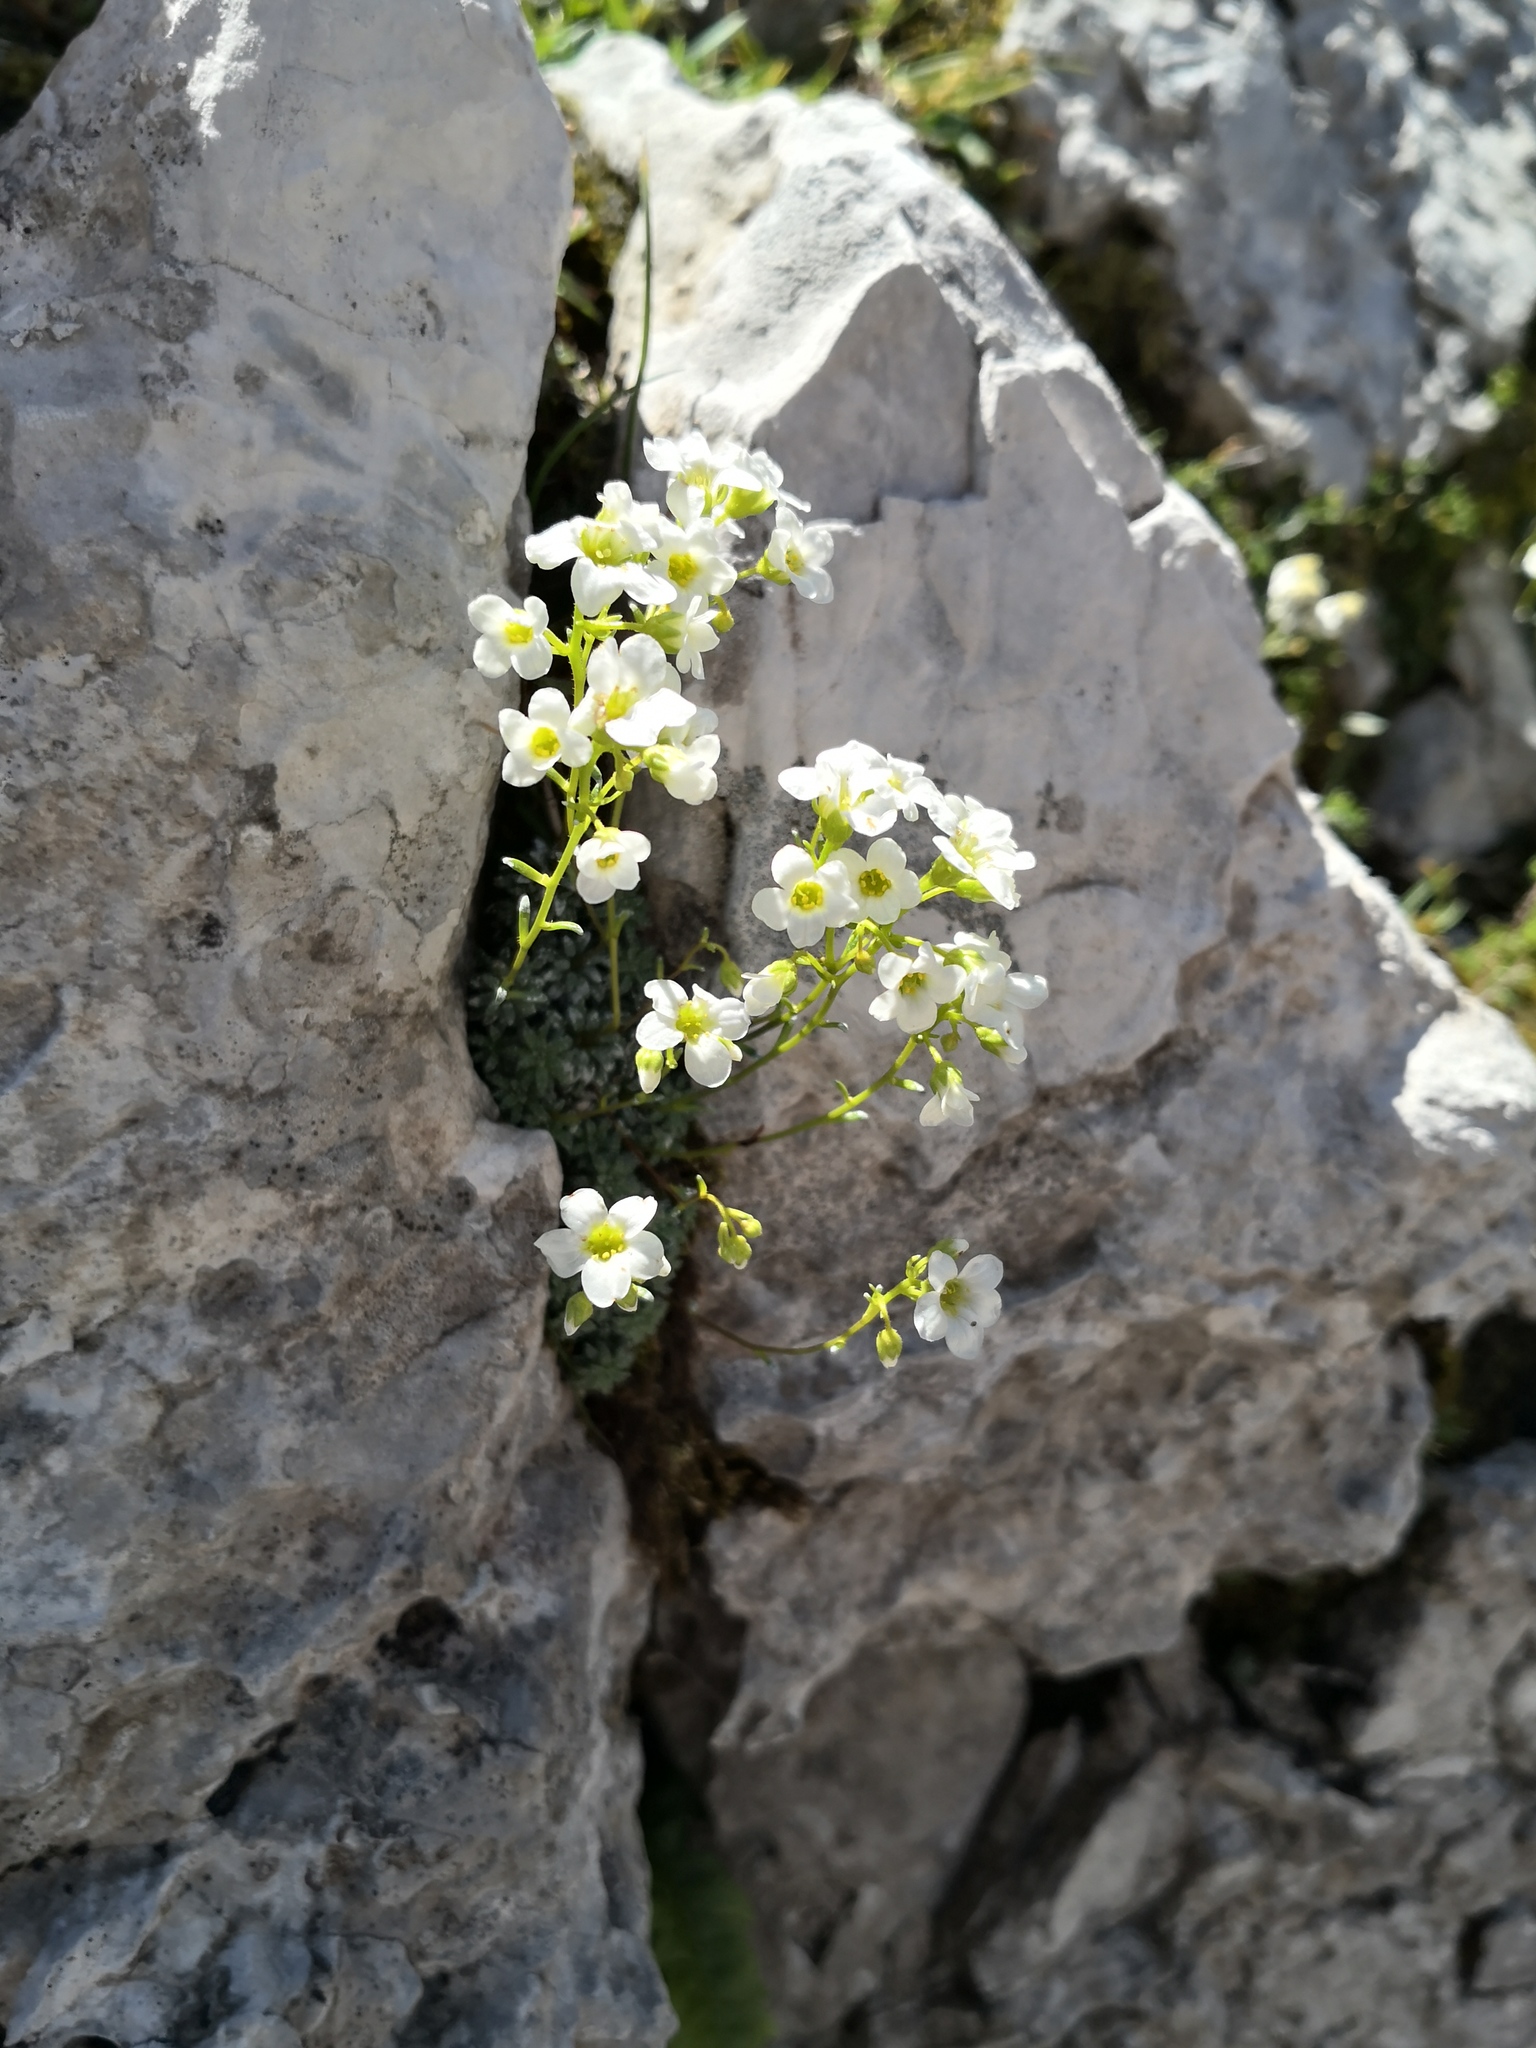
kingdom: Plantae
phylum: Tracheophyta
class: Magnoliopsida
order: Saxifragales
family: Saxifragaceae
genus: Saxifraga
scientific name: Saxifraga caesia
